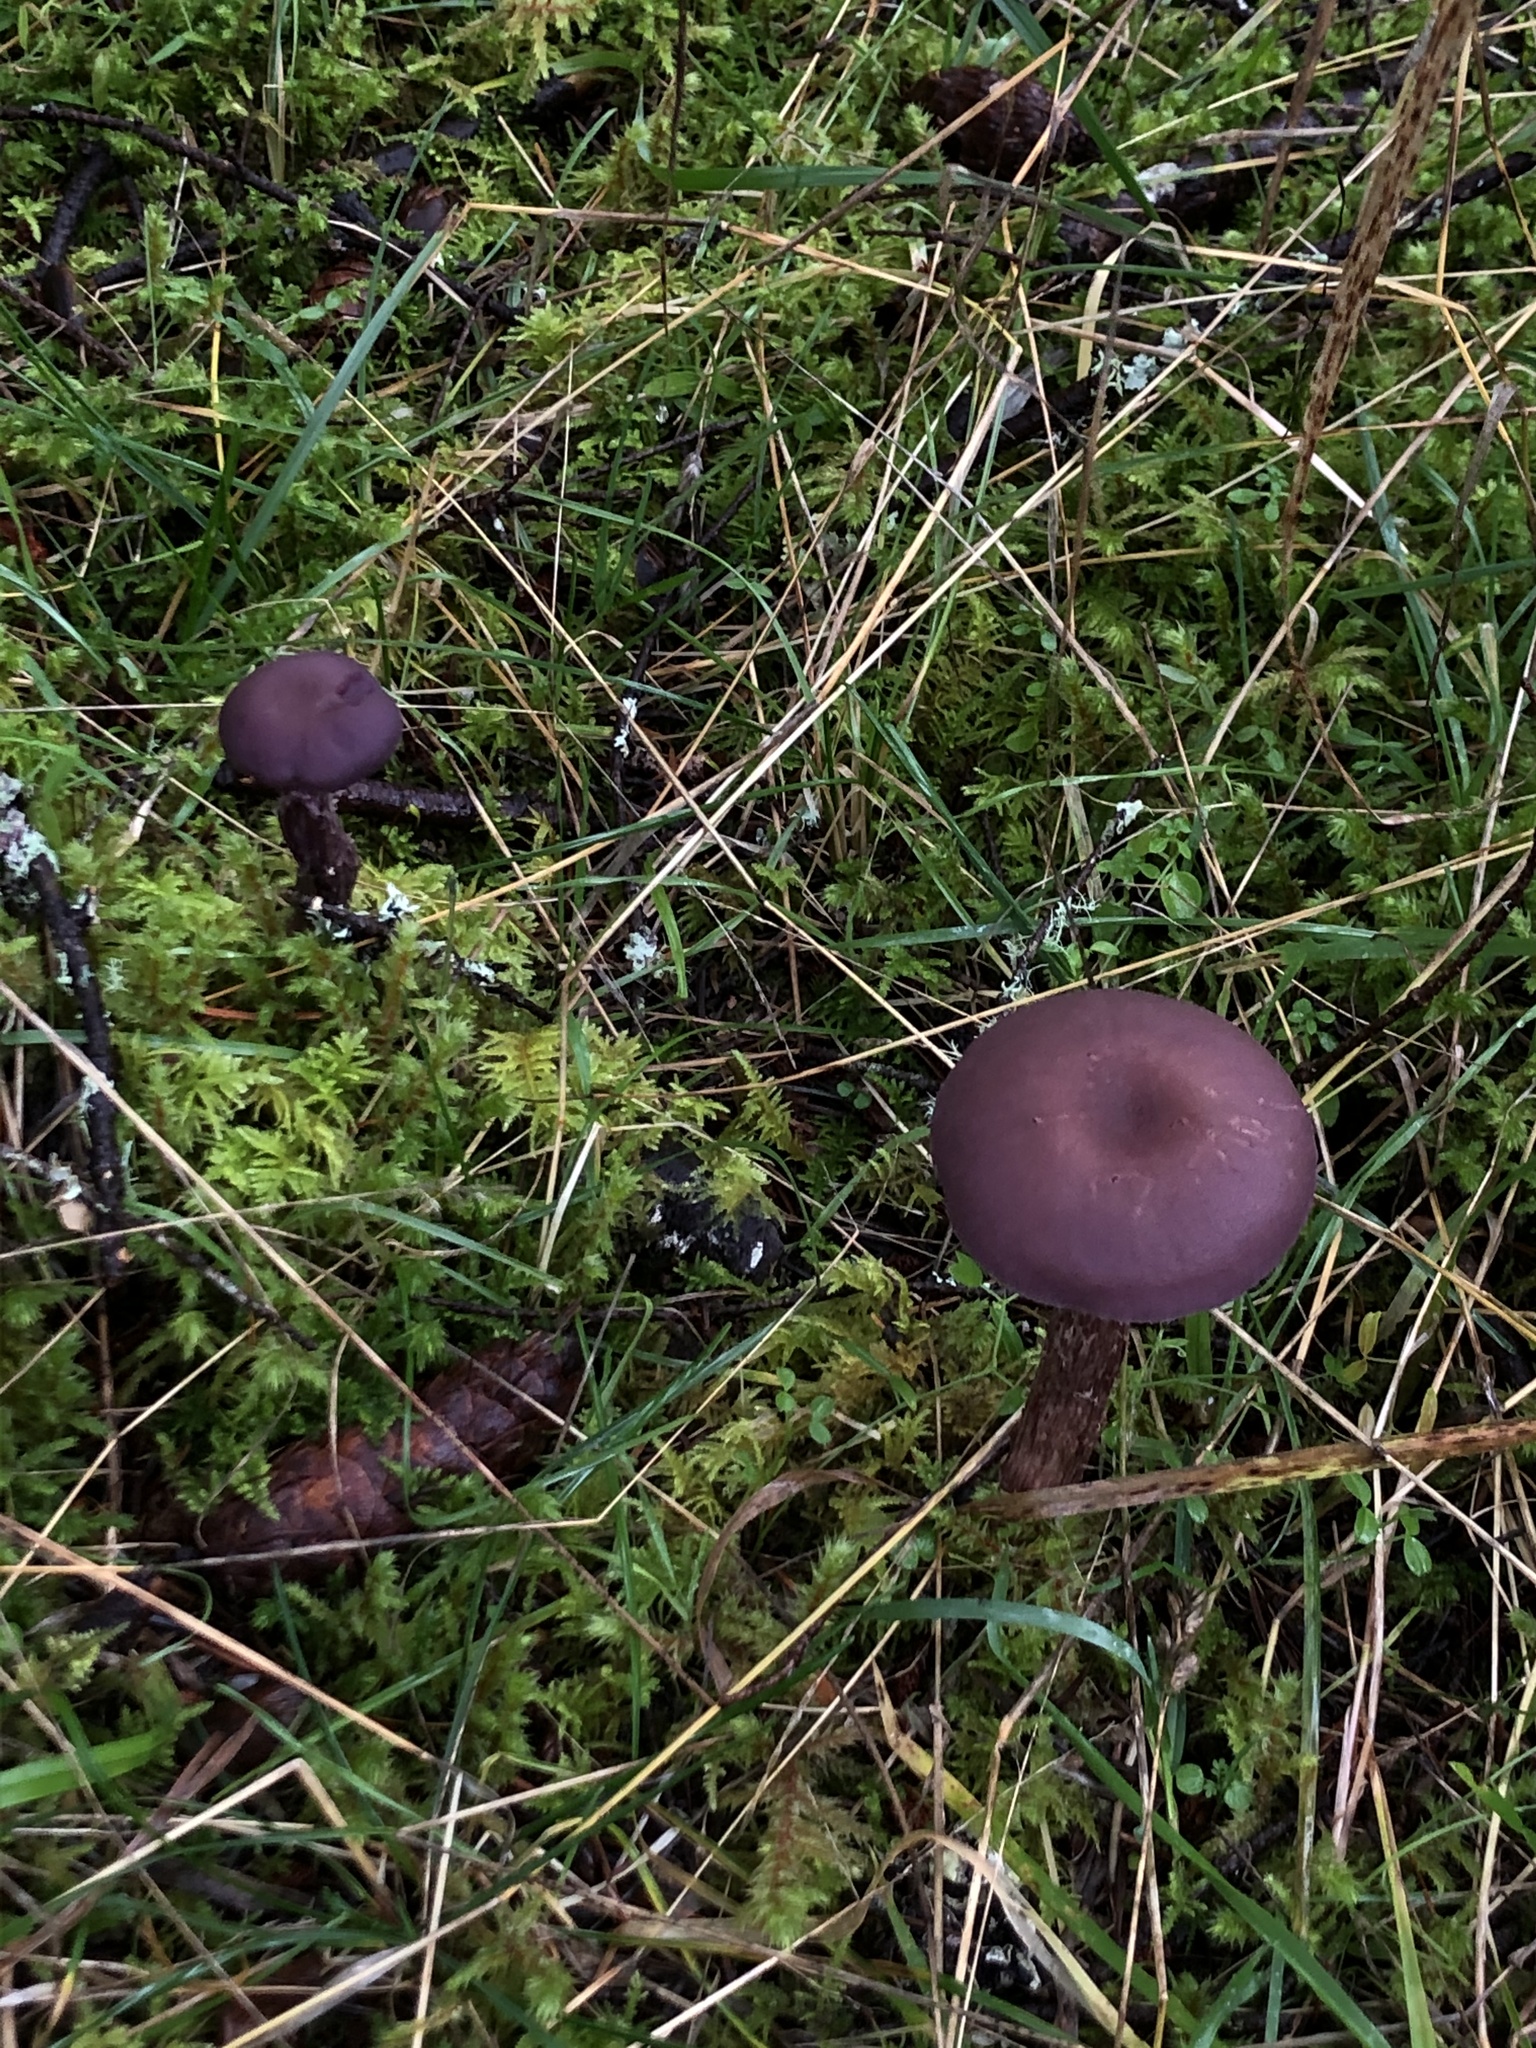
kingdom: Fungi
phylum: Basidiomycota
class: Agaricomycetes
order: Agaricales
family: Hydnangiaceae
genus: Laccaria
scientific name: Laccaria amethysteo-occidentalis
